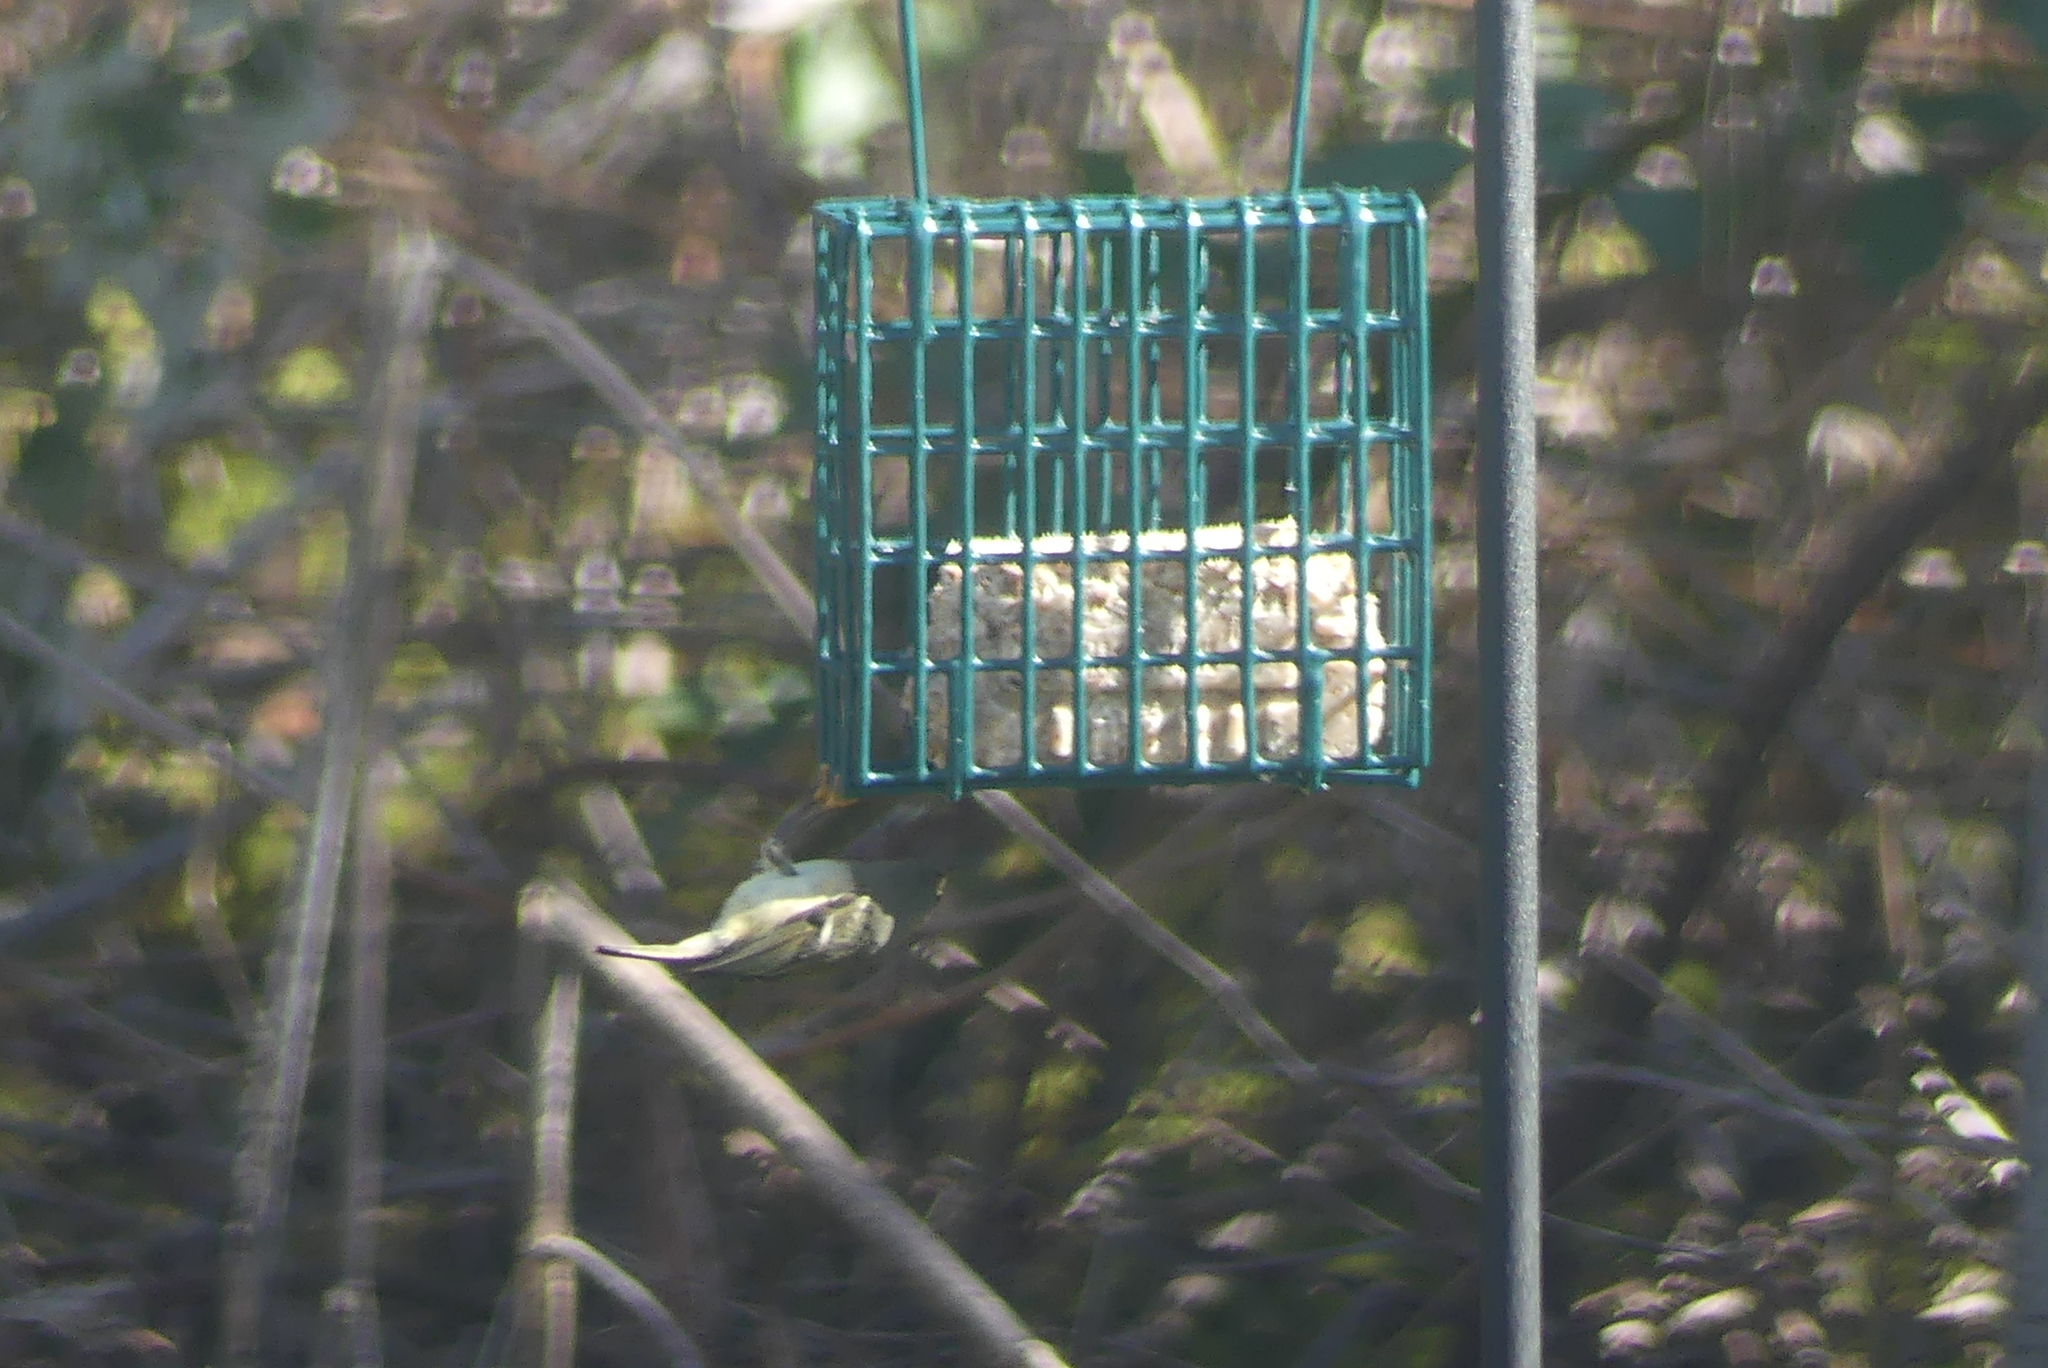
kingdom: Animalia
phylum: Chordata
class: Aves
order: Passeriformes
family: Regulidae
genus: Regulus
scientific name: Regulus calendula
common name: Ruby-crowned kinglet
